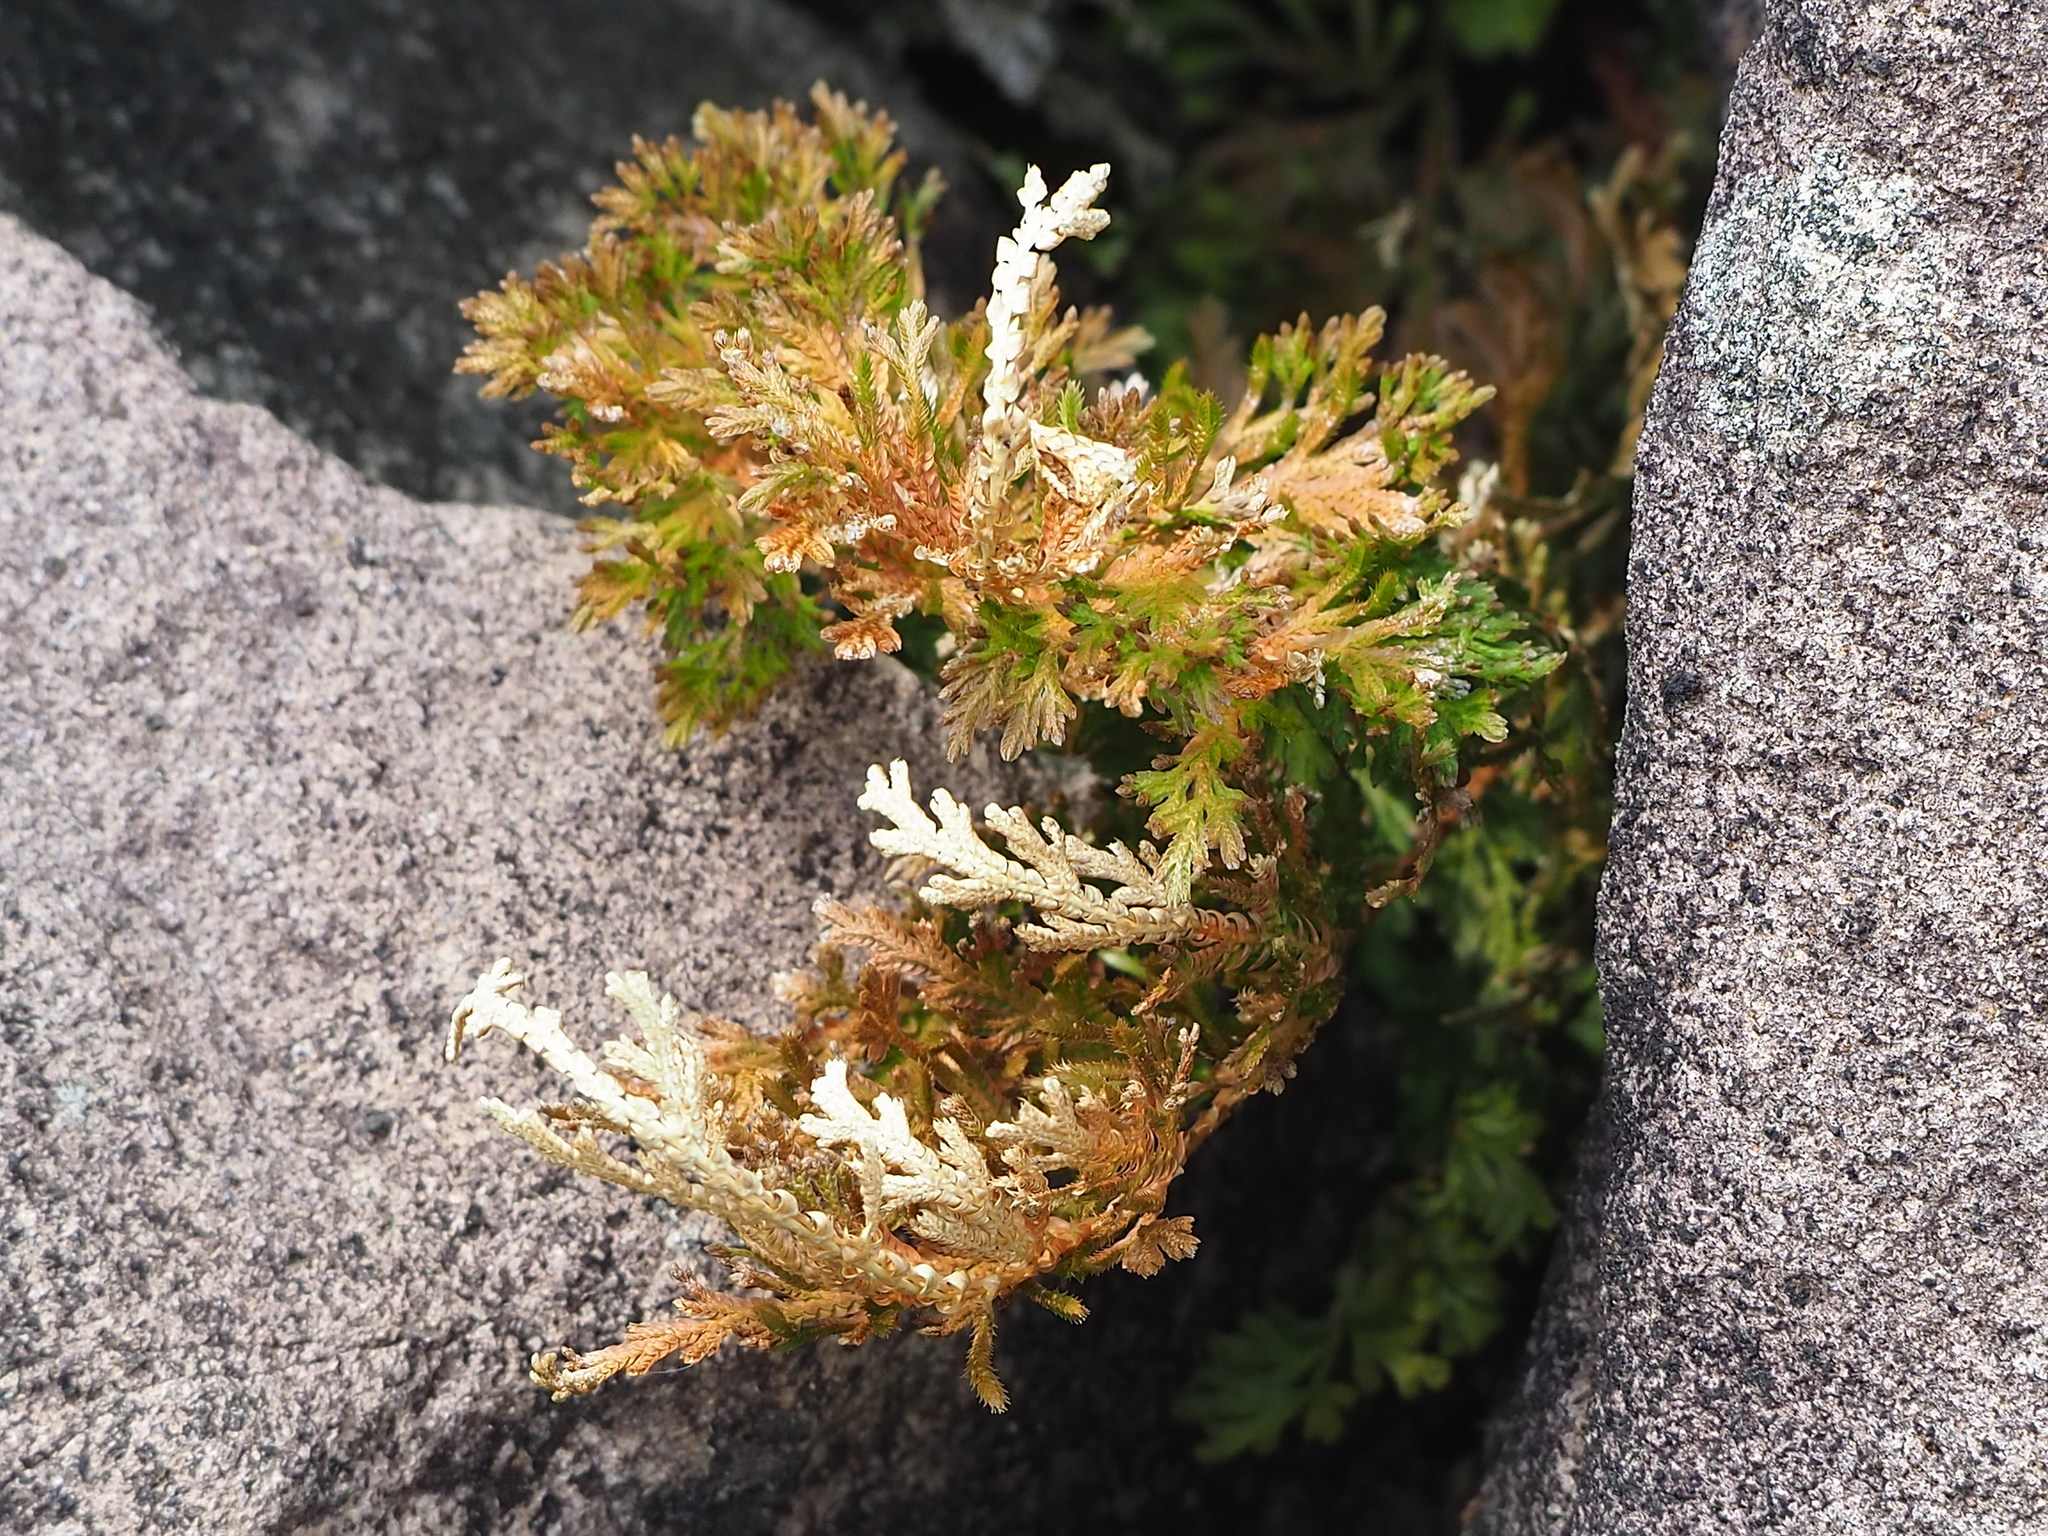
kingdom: Plantae
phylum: Tracheophyta
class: Lycopodiopsida
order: Selaginellales
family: Selaginellaceae
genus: Selaginella
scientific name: Selaginella moellendorffii
